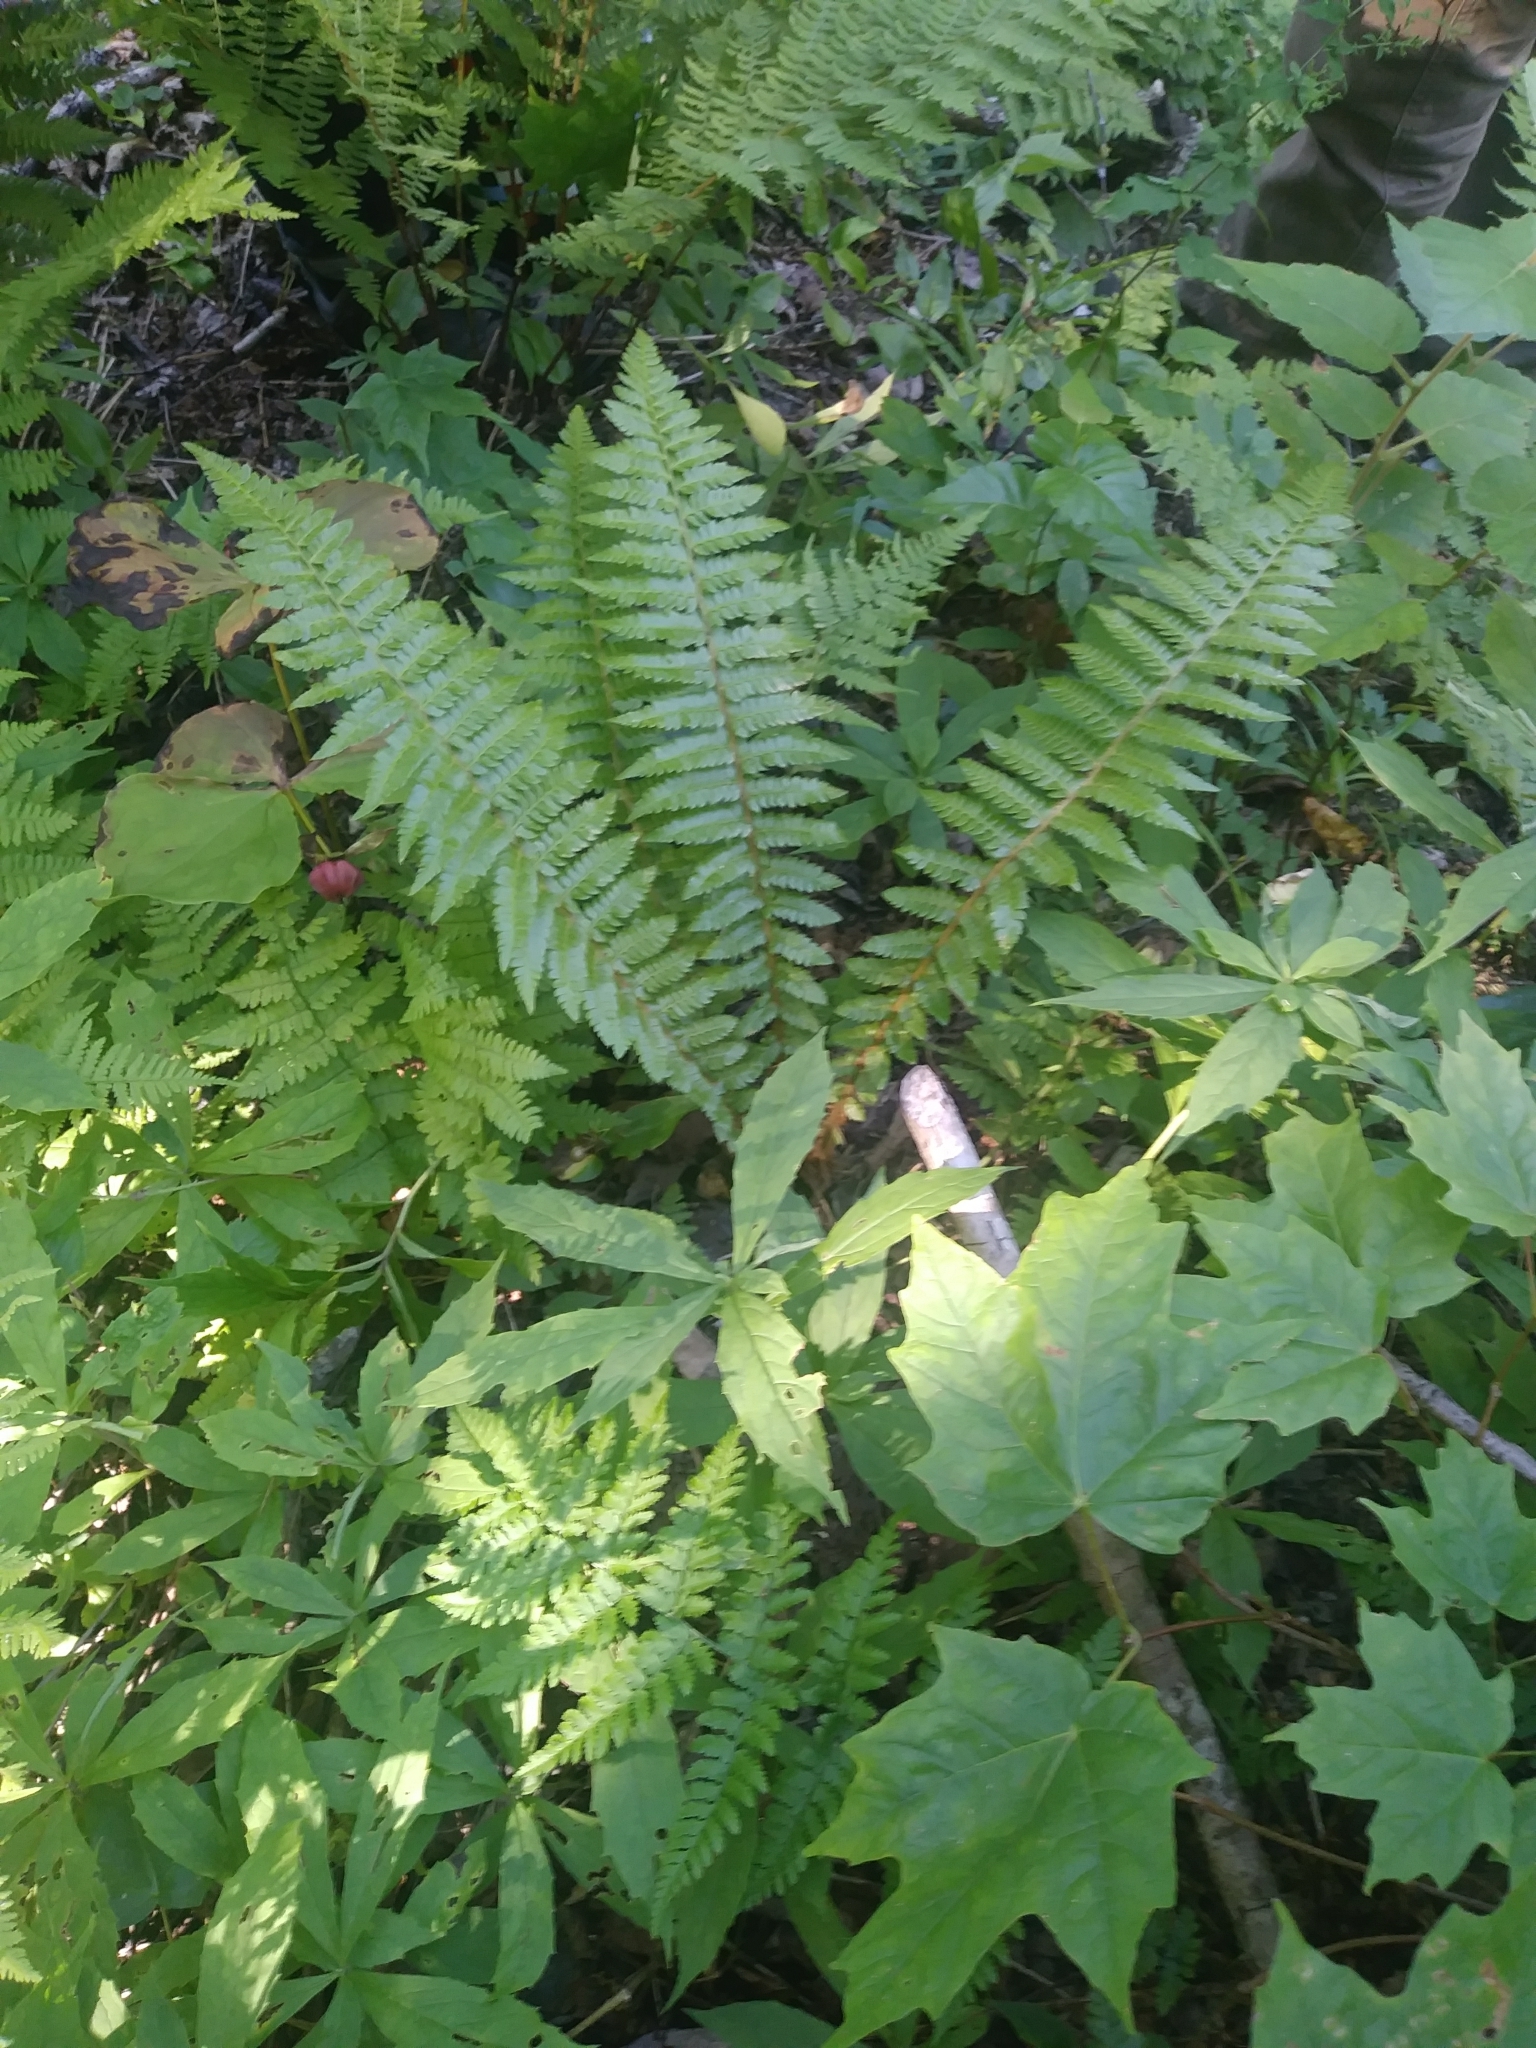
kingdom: Plantae
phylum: Tracheophyta
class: Polypodiopsida
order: Polypodiales
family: Dryopteridaceae
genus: Polystichum
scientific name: Polystichum braunii
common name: Braun's holly fern
